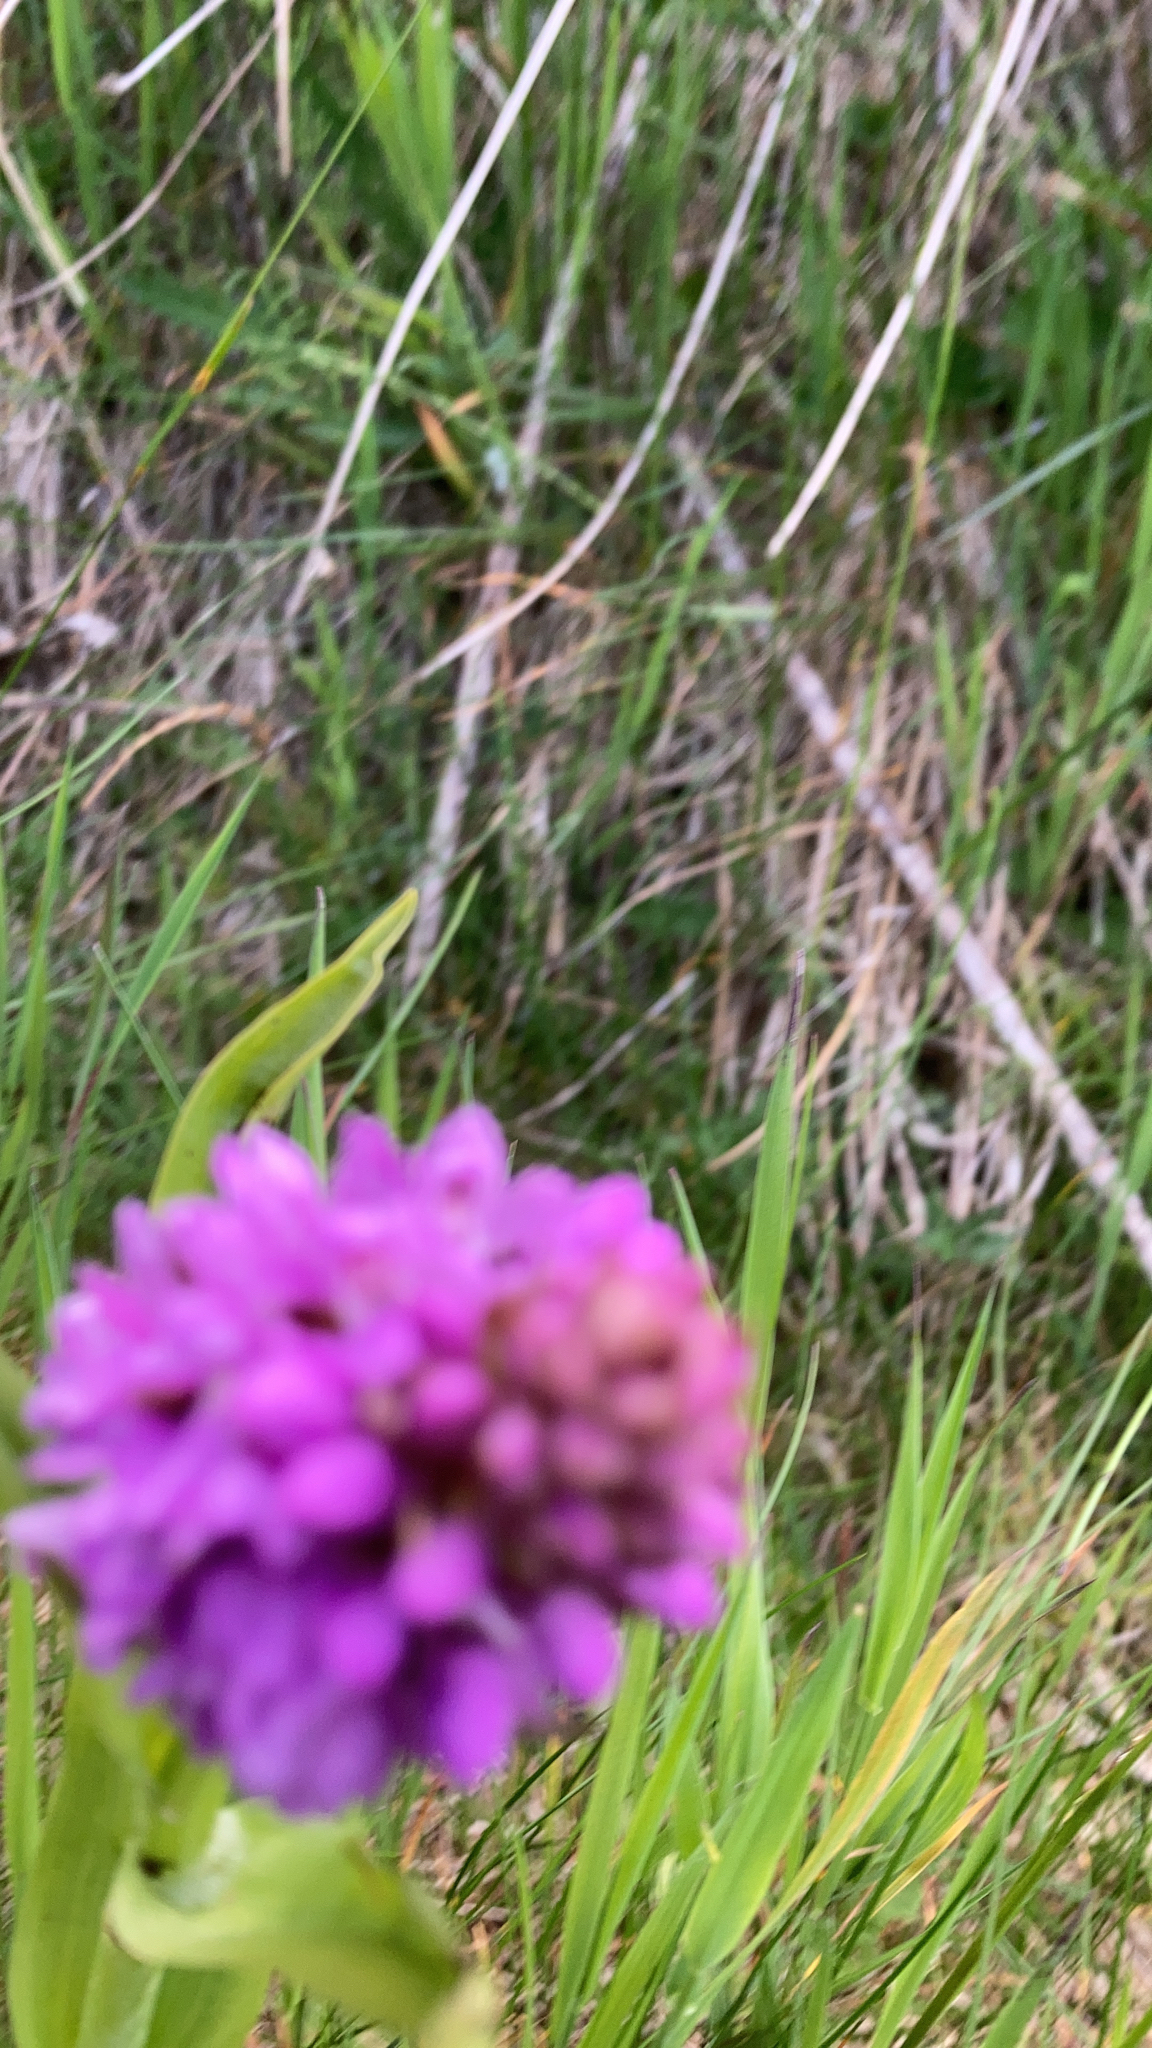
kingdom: Plantae
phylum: Tracheophyta
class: Liliopsida
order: Asparagales
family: Orchidaceae
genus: Anacamptis
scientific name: Anacamptis pyramidalis
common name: Pyramidal orchid
